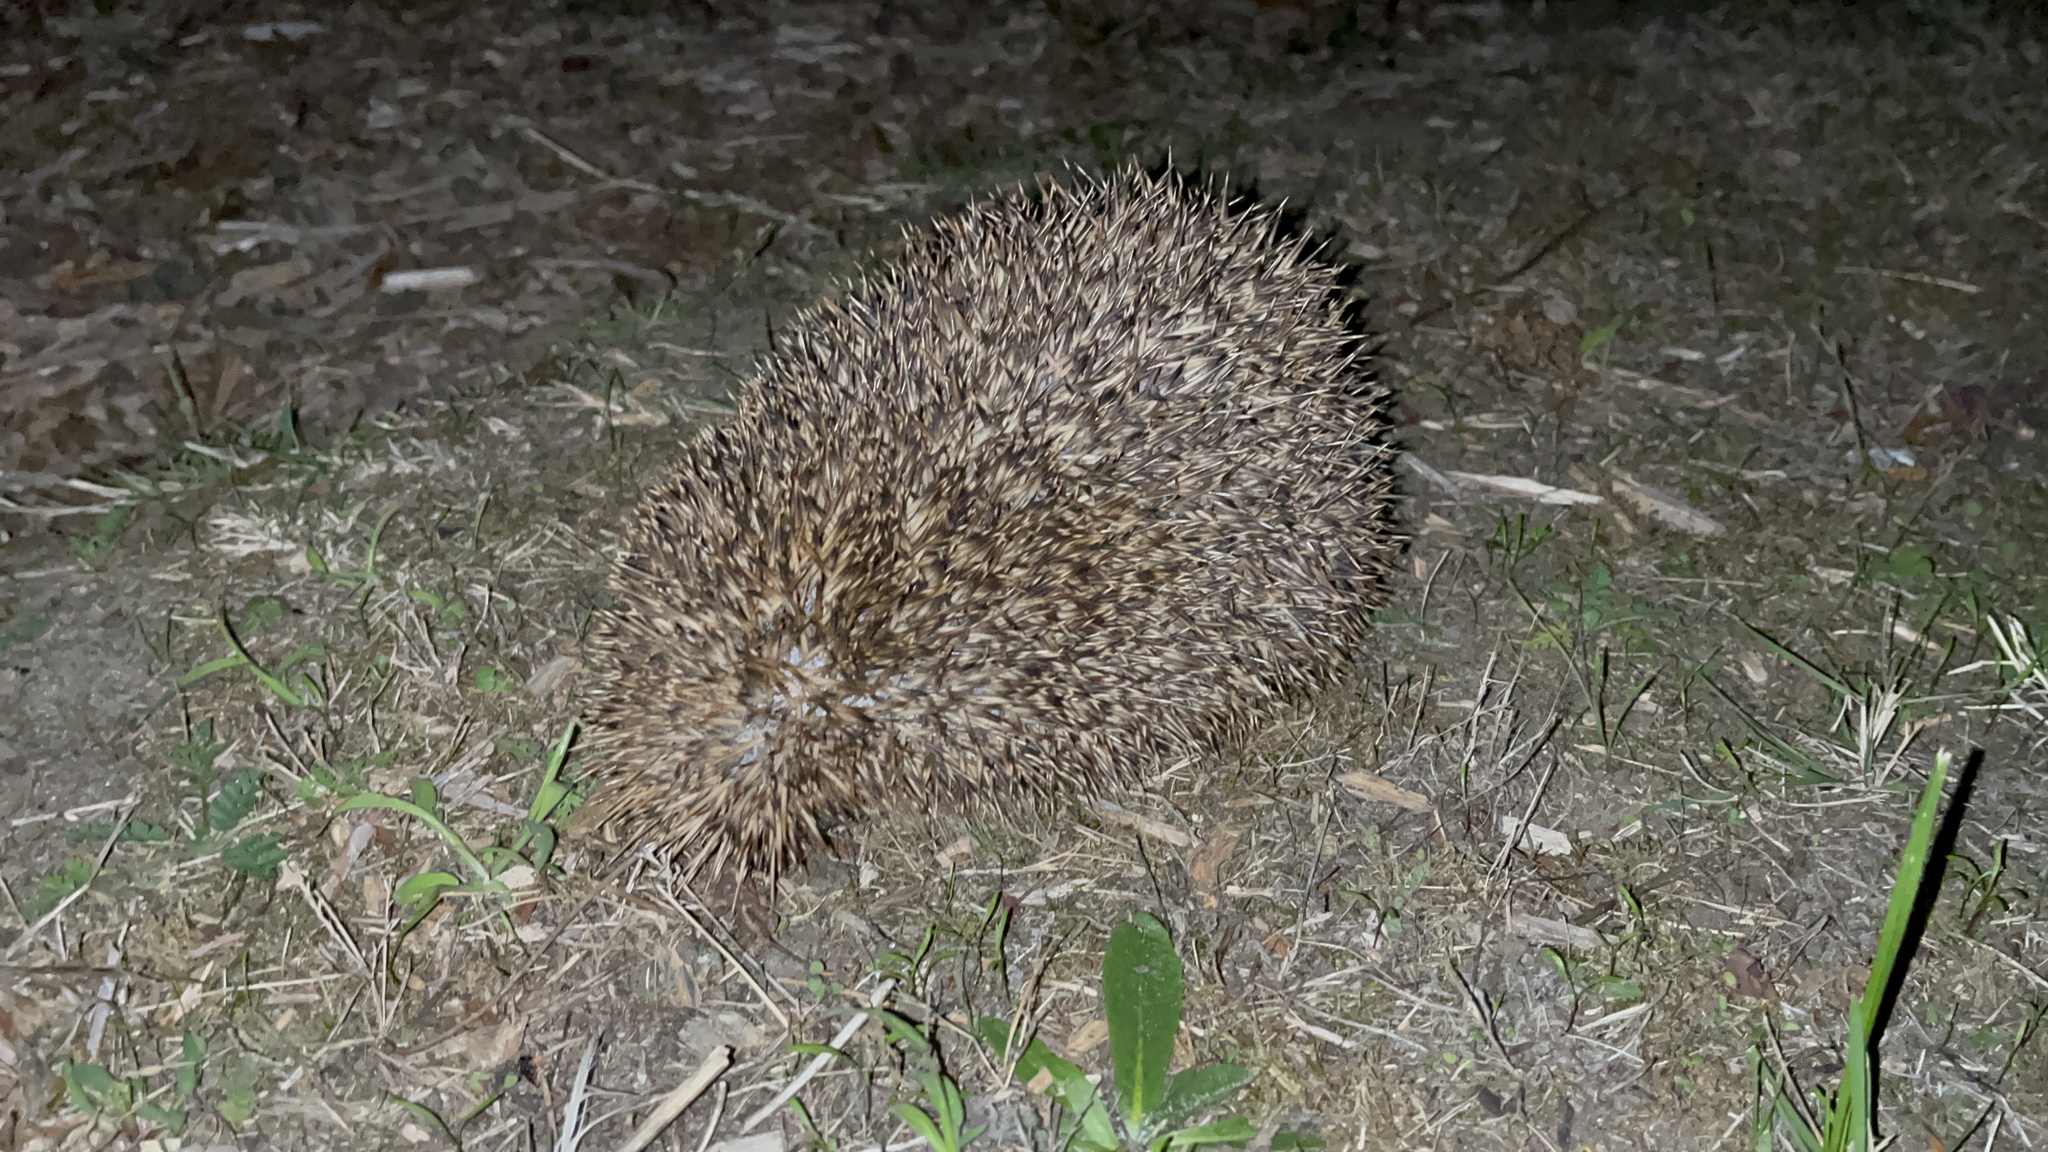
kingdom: Animalia
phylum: Chordata
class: Mammalia
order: Erinaceomorpha
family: Erinaceidae
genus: Erinaceus
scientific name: Erinaceus europaeus
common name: West european hedgehog
